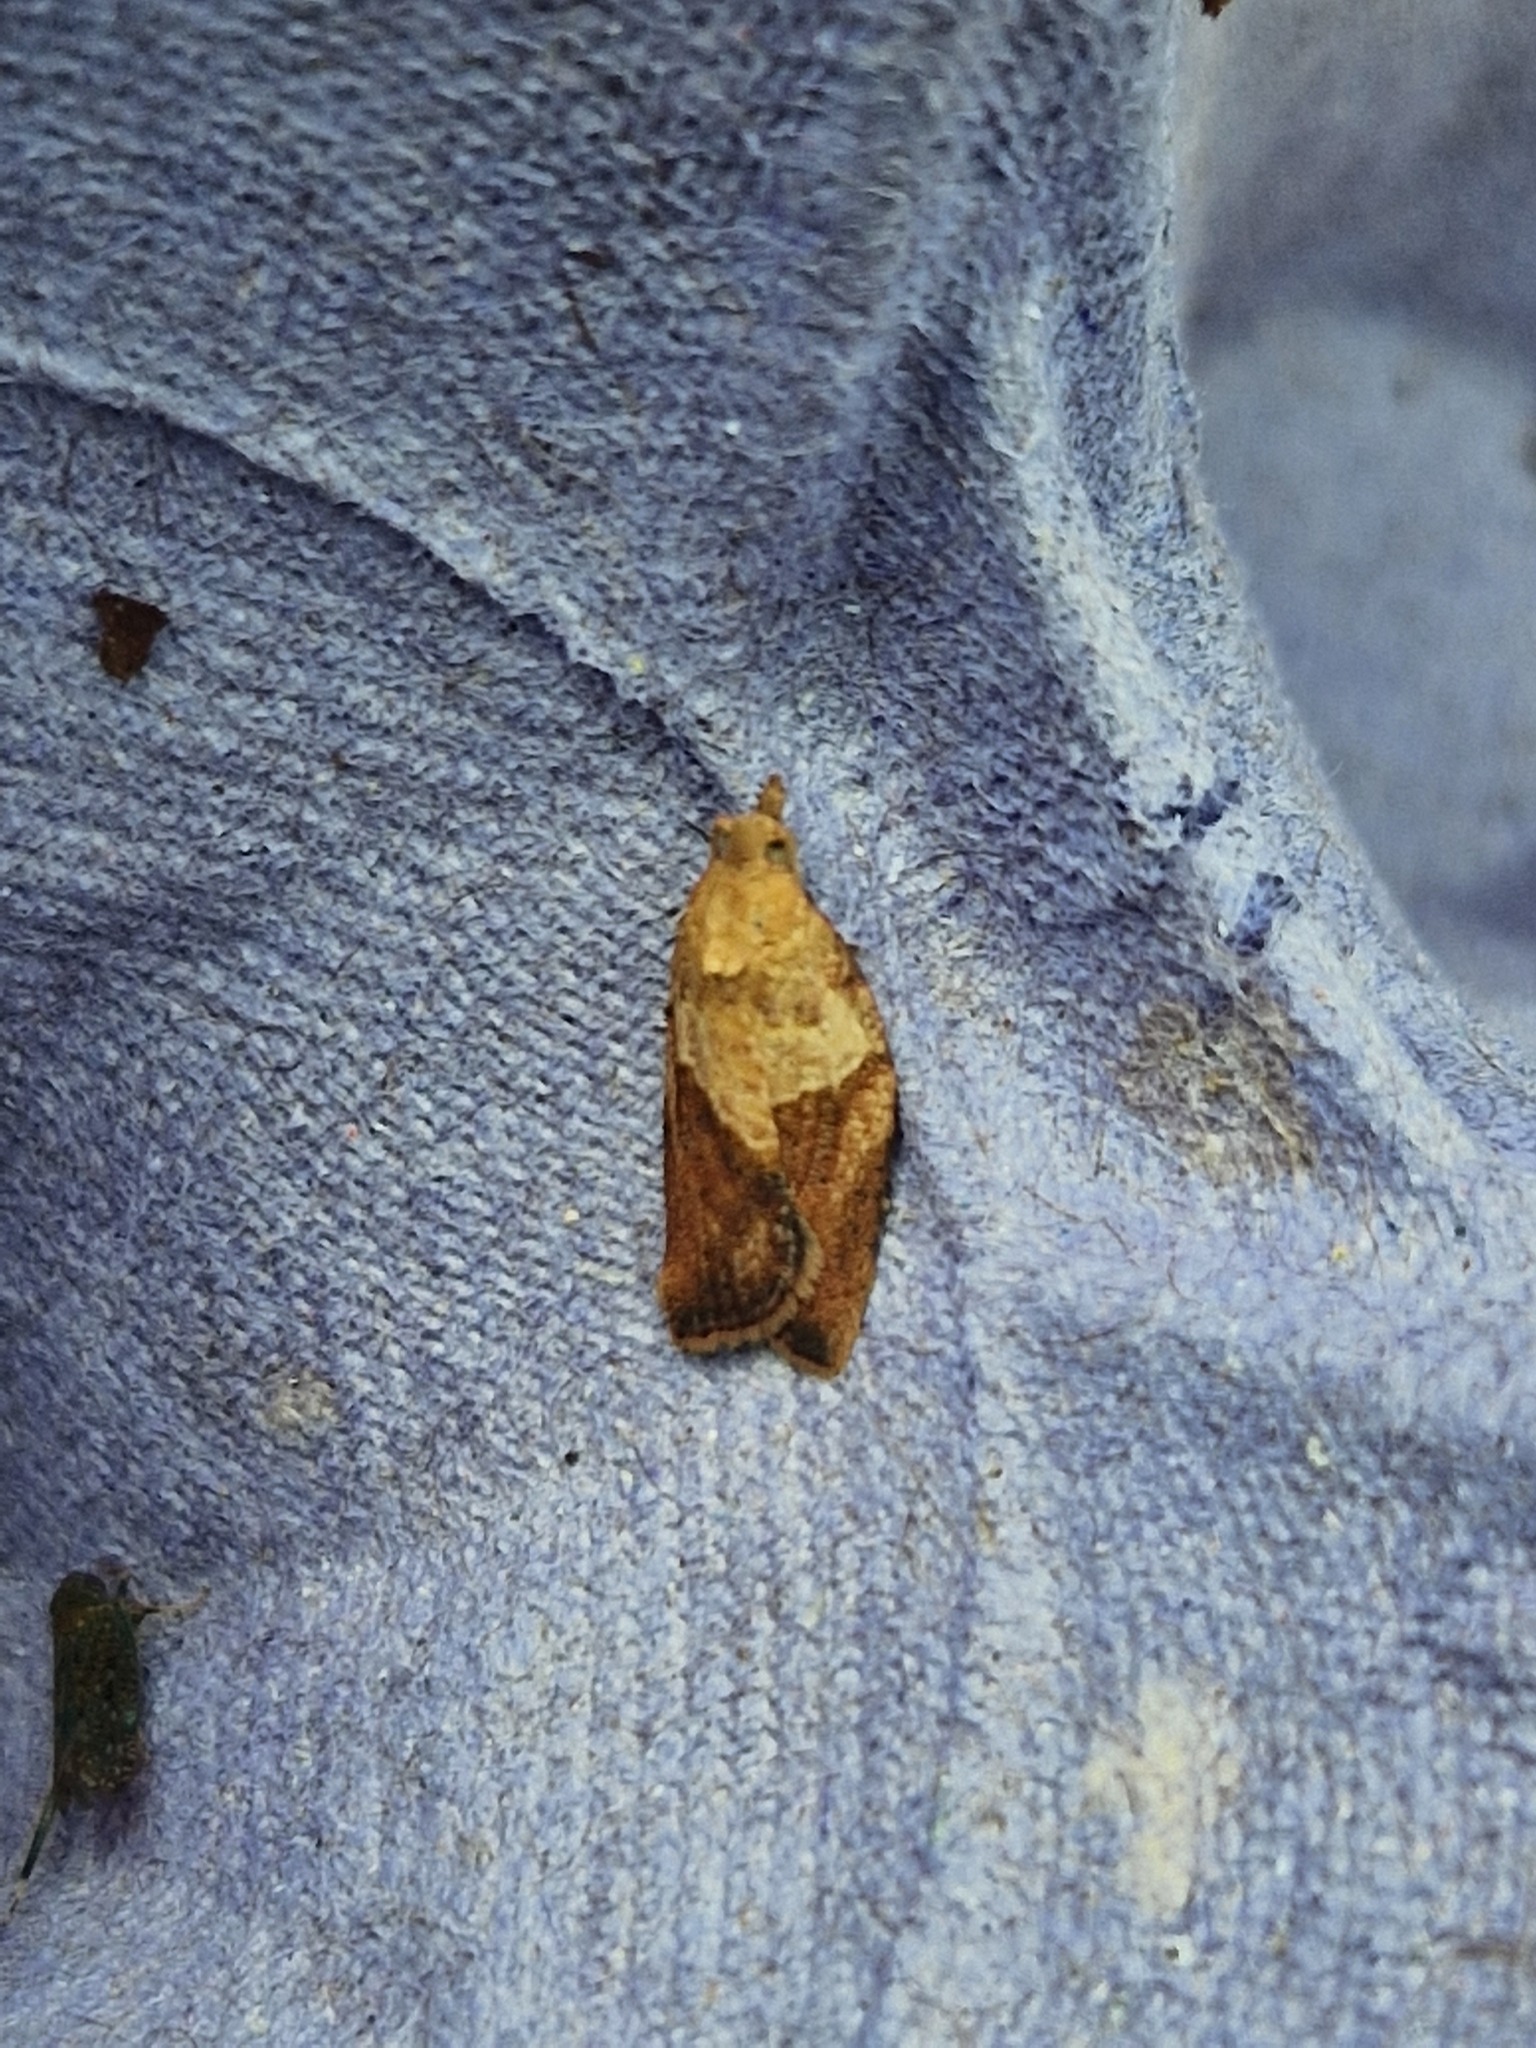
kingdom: Animalia
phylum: Arthropoda
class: Insecta
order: Lepidoptera
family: Tortricidae
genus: Epiphyas
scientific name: Epiphyas postvittana
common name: Light brown apple moth
